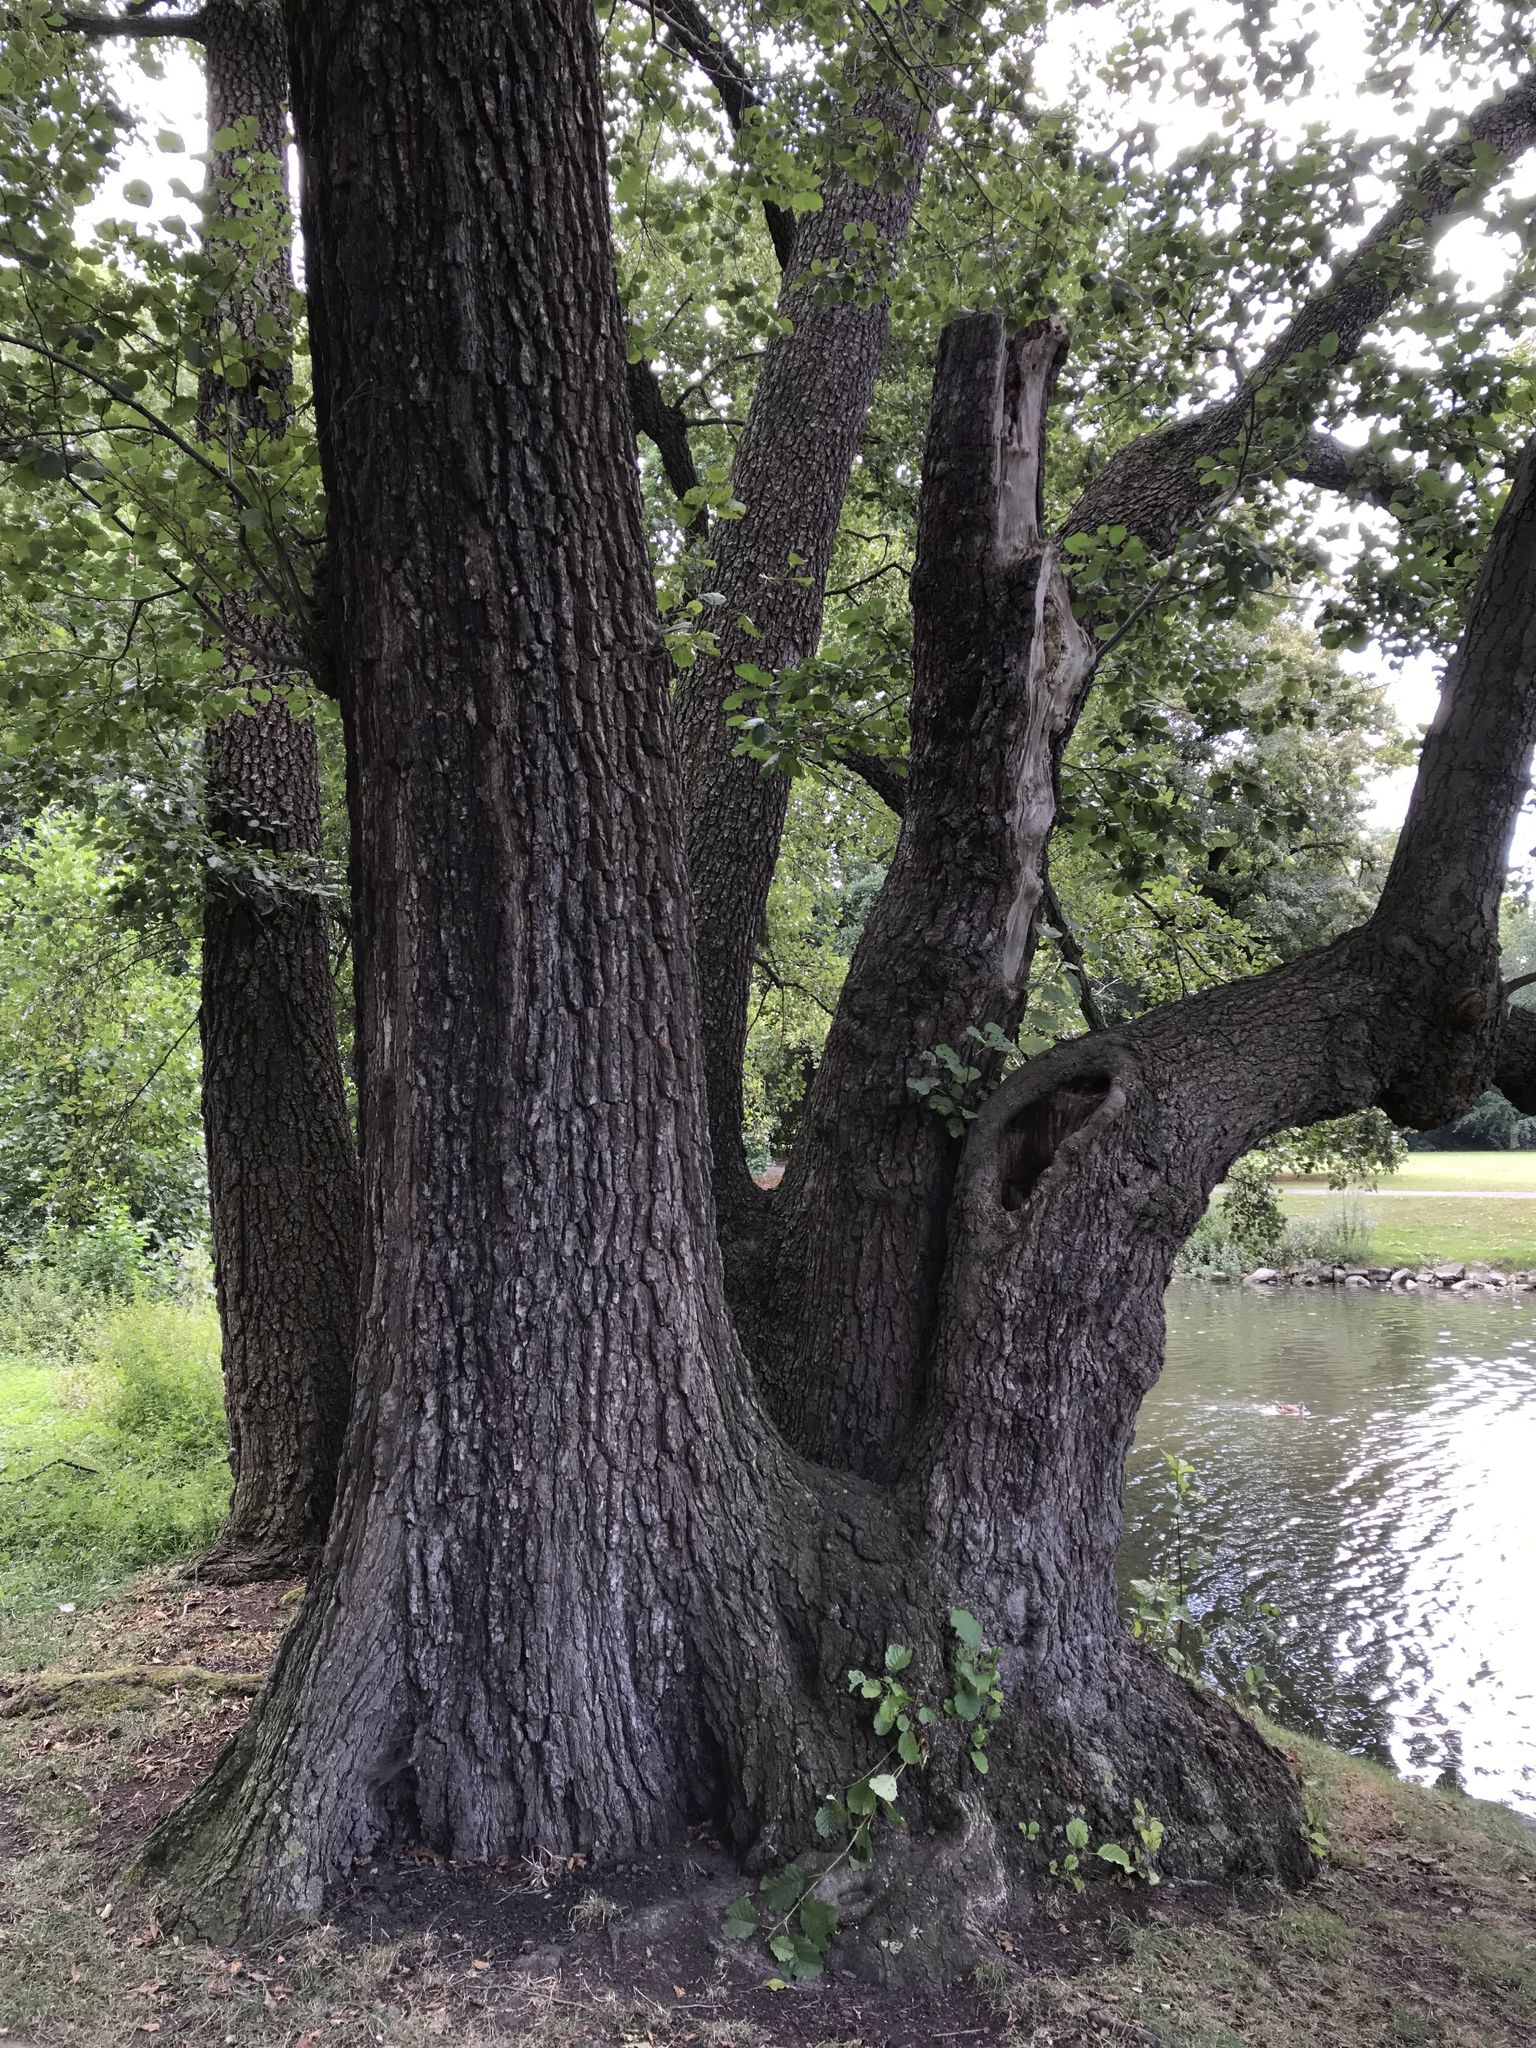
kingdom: Plantae
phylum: Tracheophyta
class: Magnoliopsida
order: Fagales
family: Betulaceae
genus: Alnus
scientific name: Alnus glutinosa
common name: Black alder
